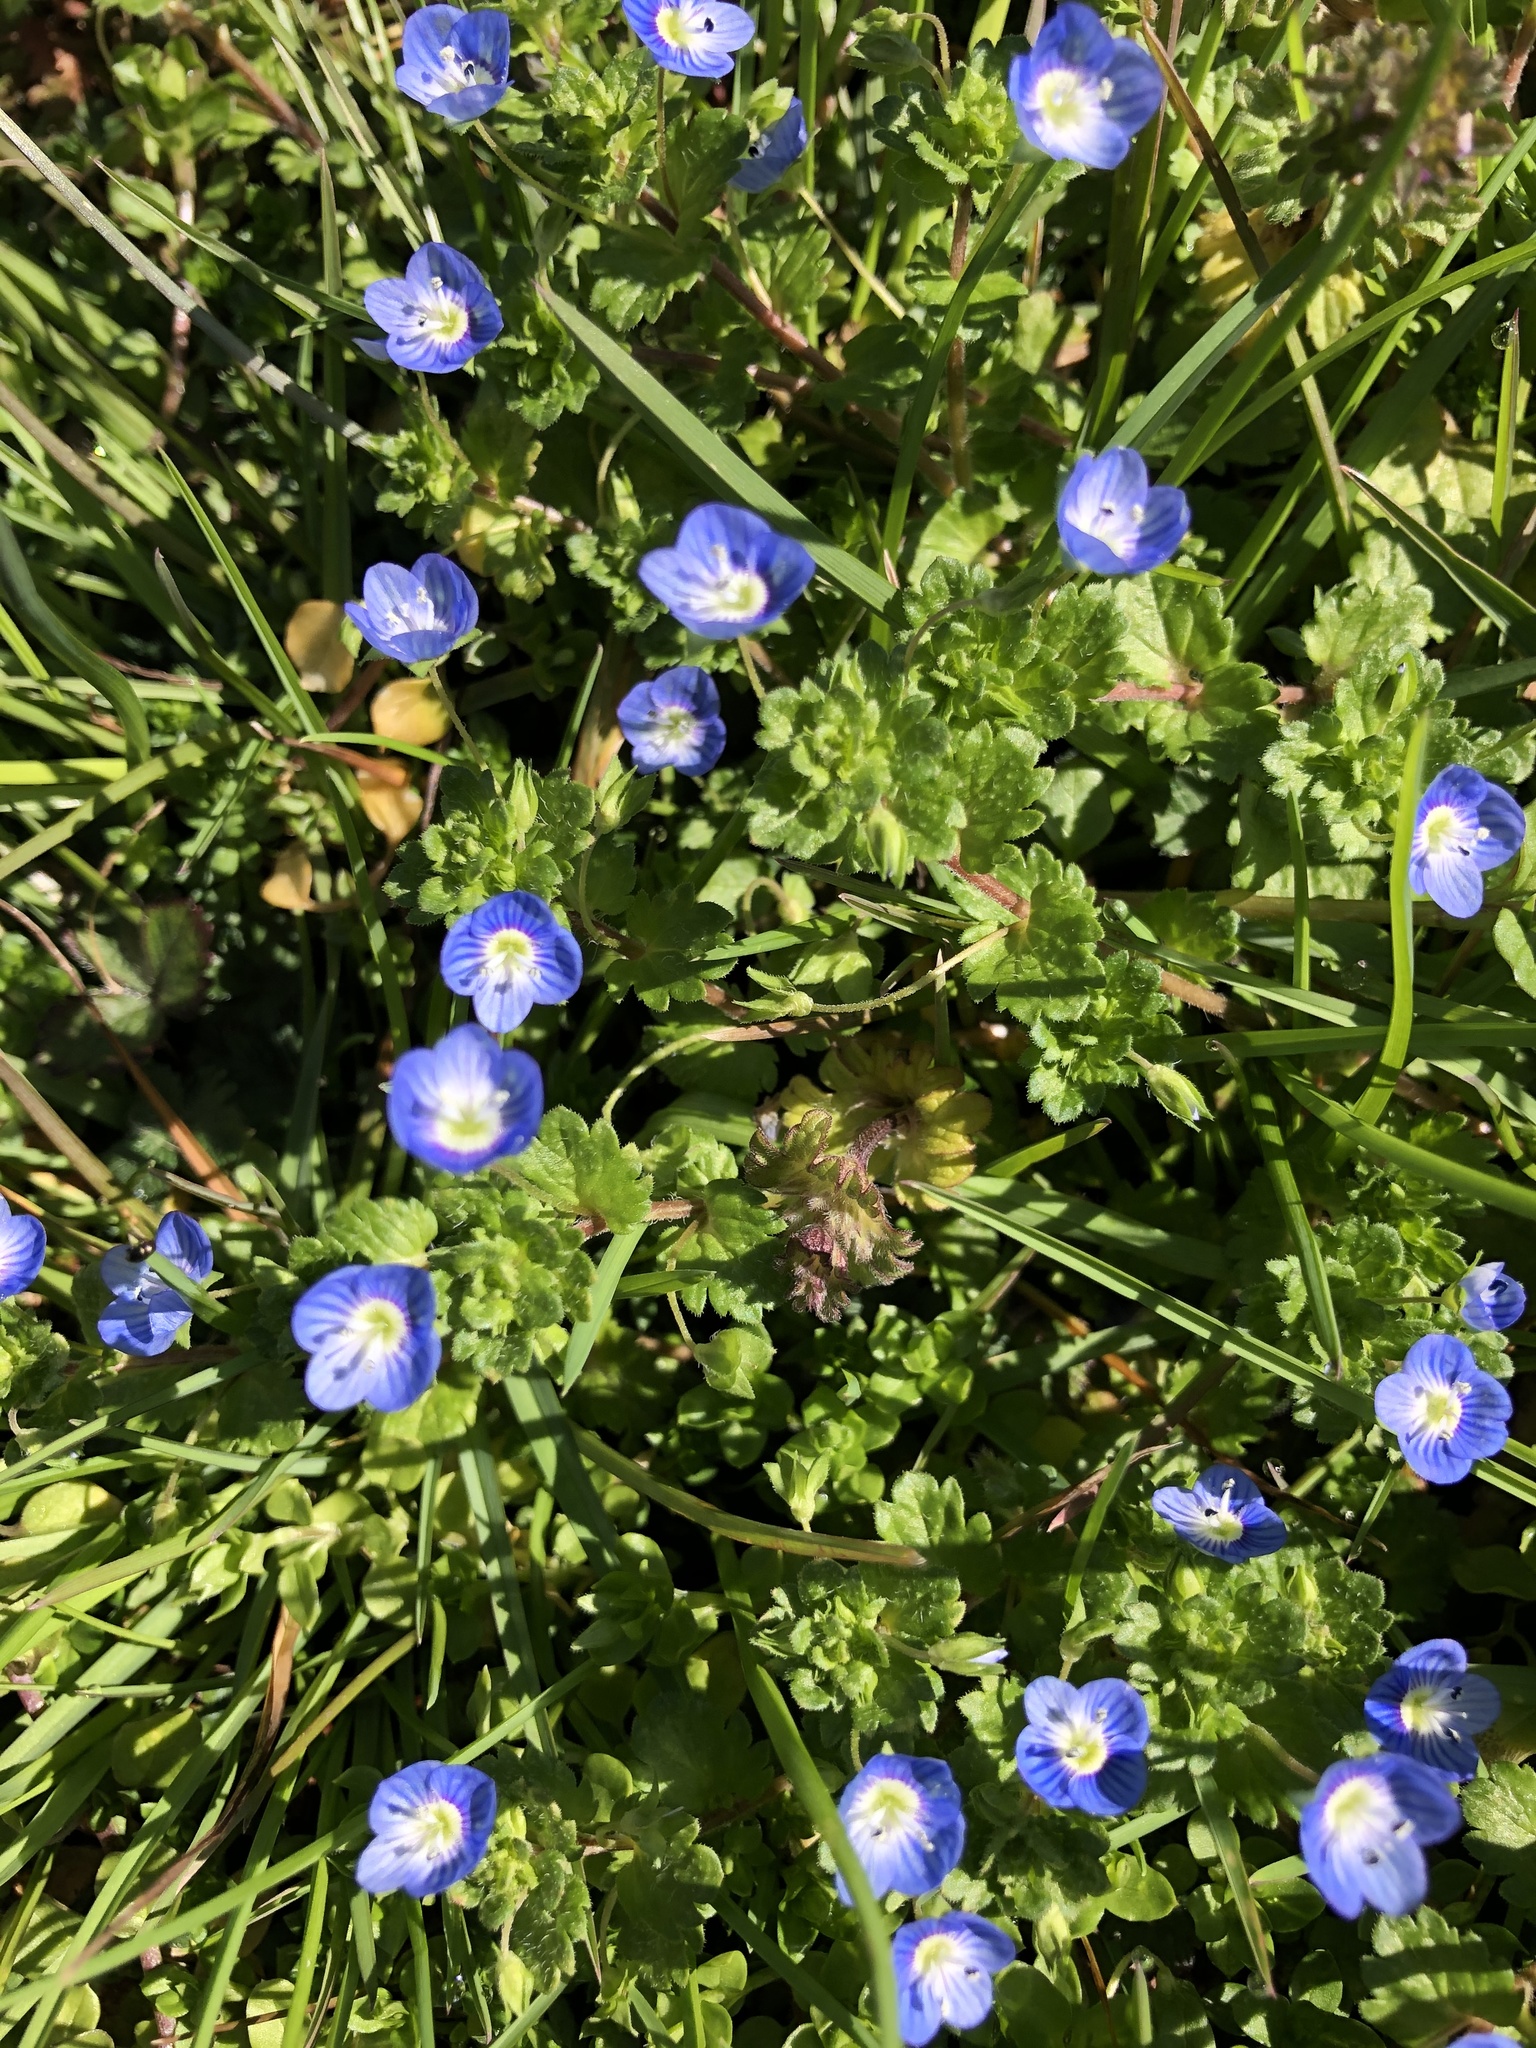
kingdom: Plantae
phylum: Tracheophyta
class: Magnoliopsida
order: Lamiales
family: Plantaginaceae
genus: Veronica
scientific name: Veronica persica
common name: Common field-speedwell
